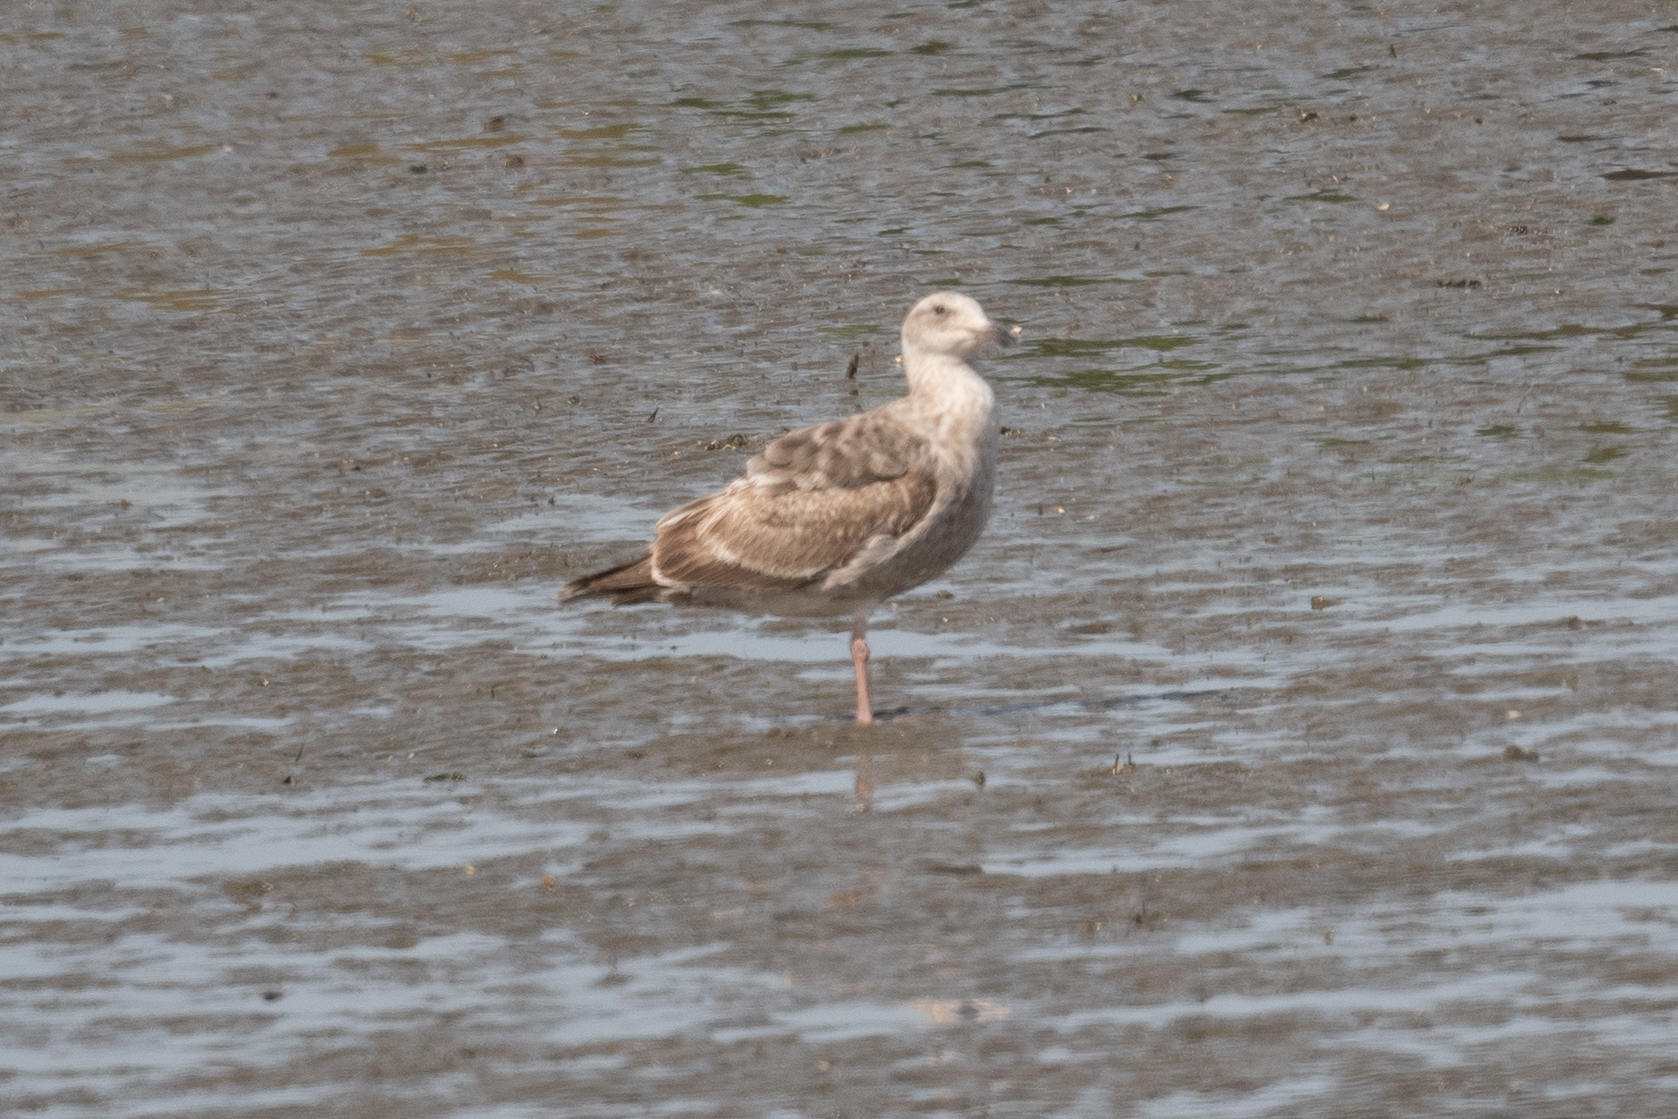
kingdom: Animalia
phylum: Chordata
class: Aves
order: Charadriiformes
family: Laridae
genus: Larus
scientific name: Larus occidentalis
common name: Western gull
